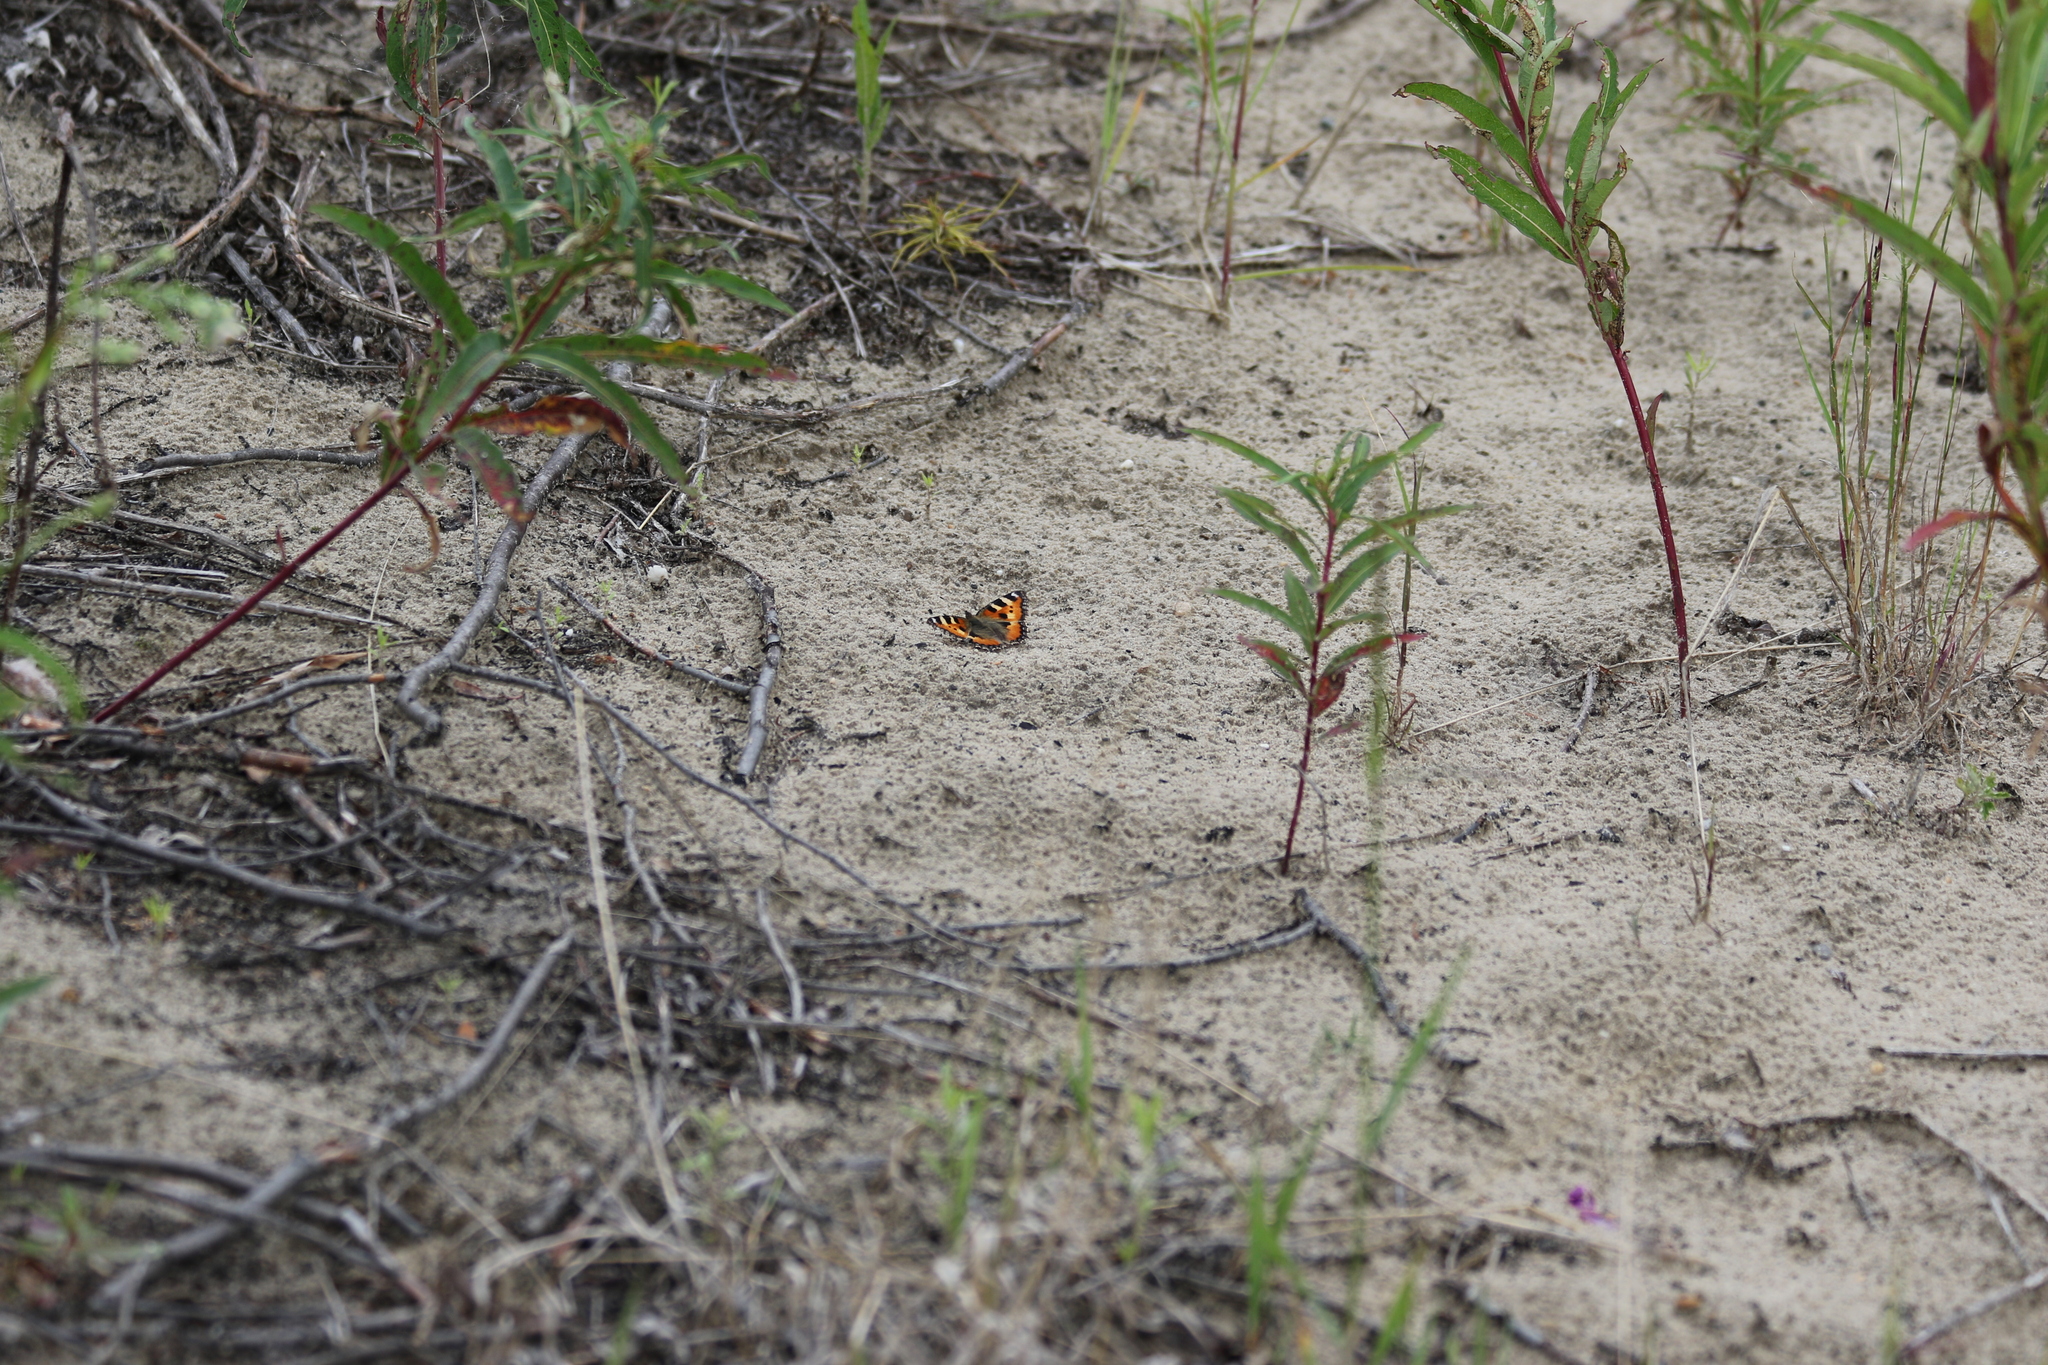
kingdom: Animalia
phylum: Arthropoda
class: Insecta
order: Lepidoptera
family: Nymphalidae
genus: Aglais
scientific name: Aglais urticae
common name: Small tortoiseshell
